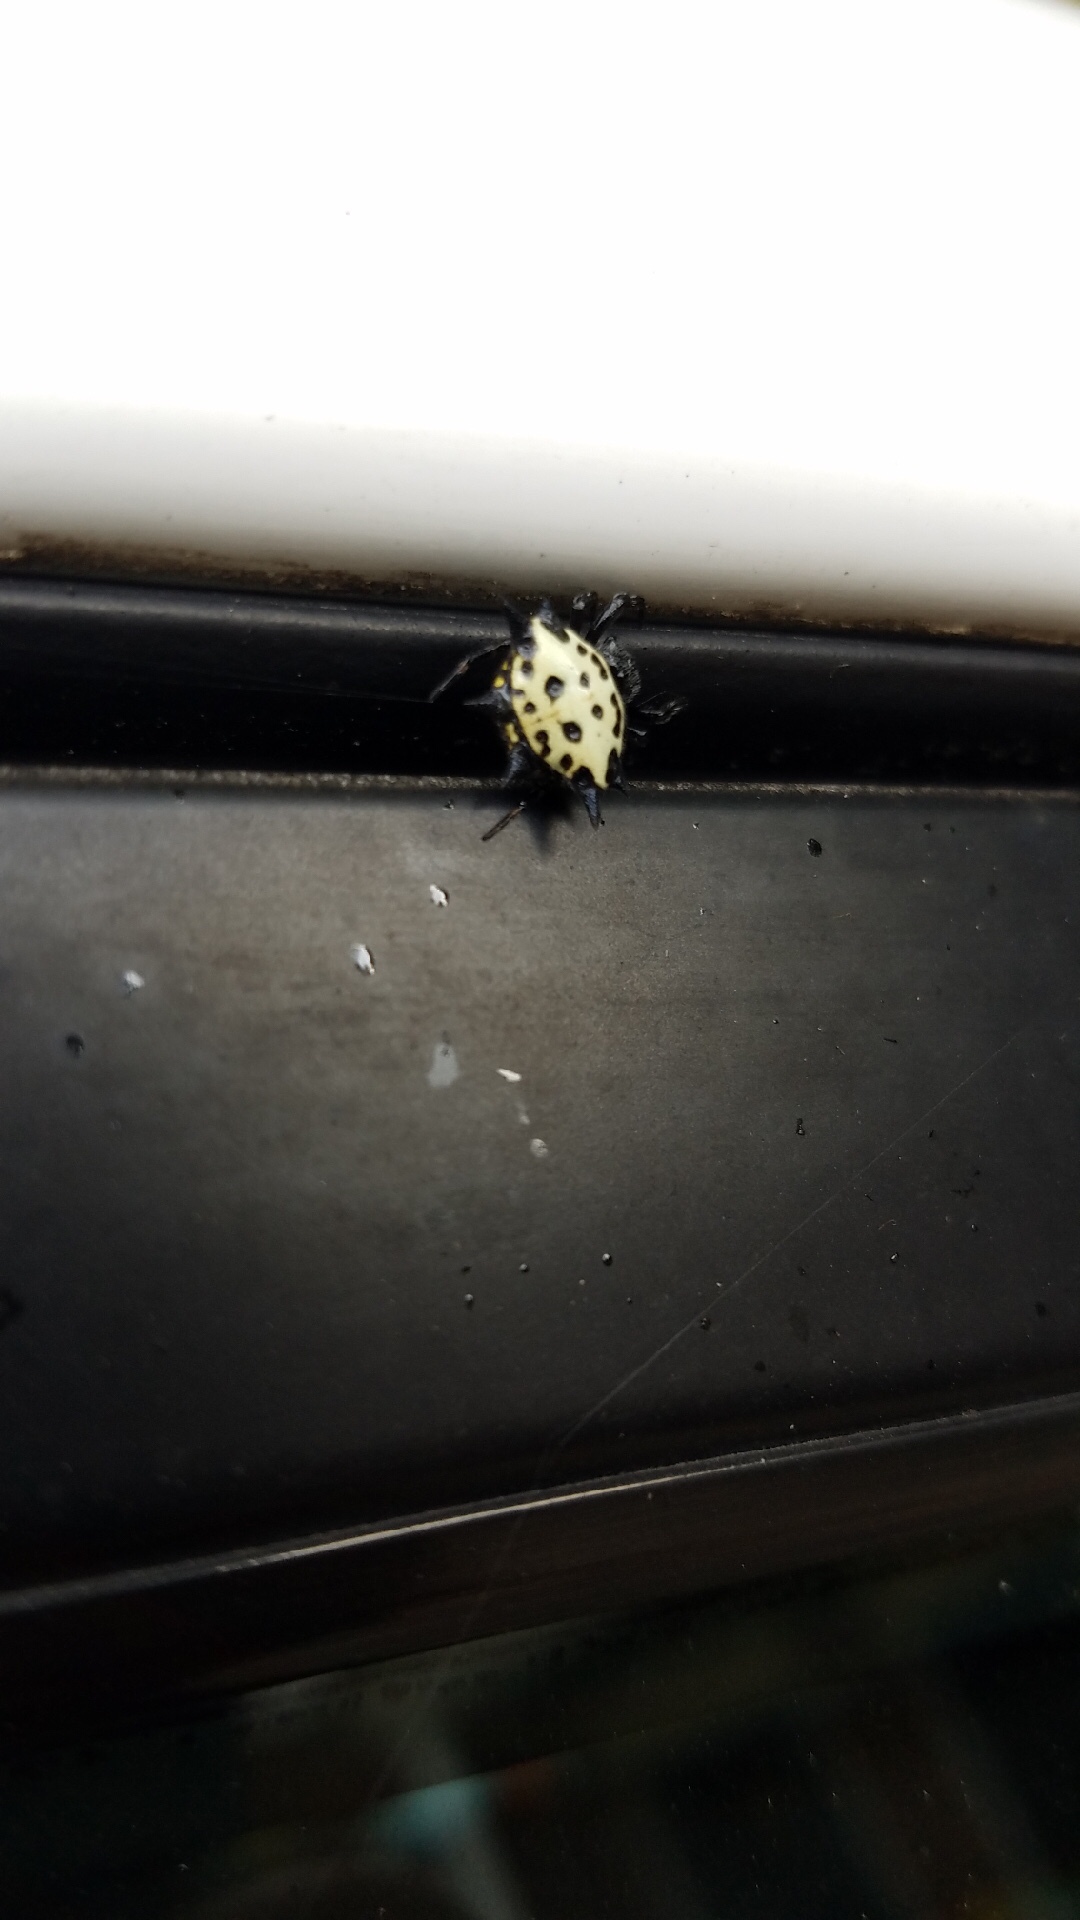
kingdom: Animalia
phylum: Arthropoda
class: Arachnida
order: Araneae
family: Araneidae
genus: Gasteracantha
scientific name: Gasteracantha cancriformis
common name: Orb weavers
